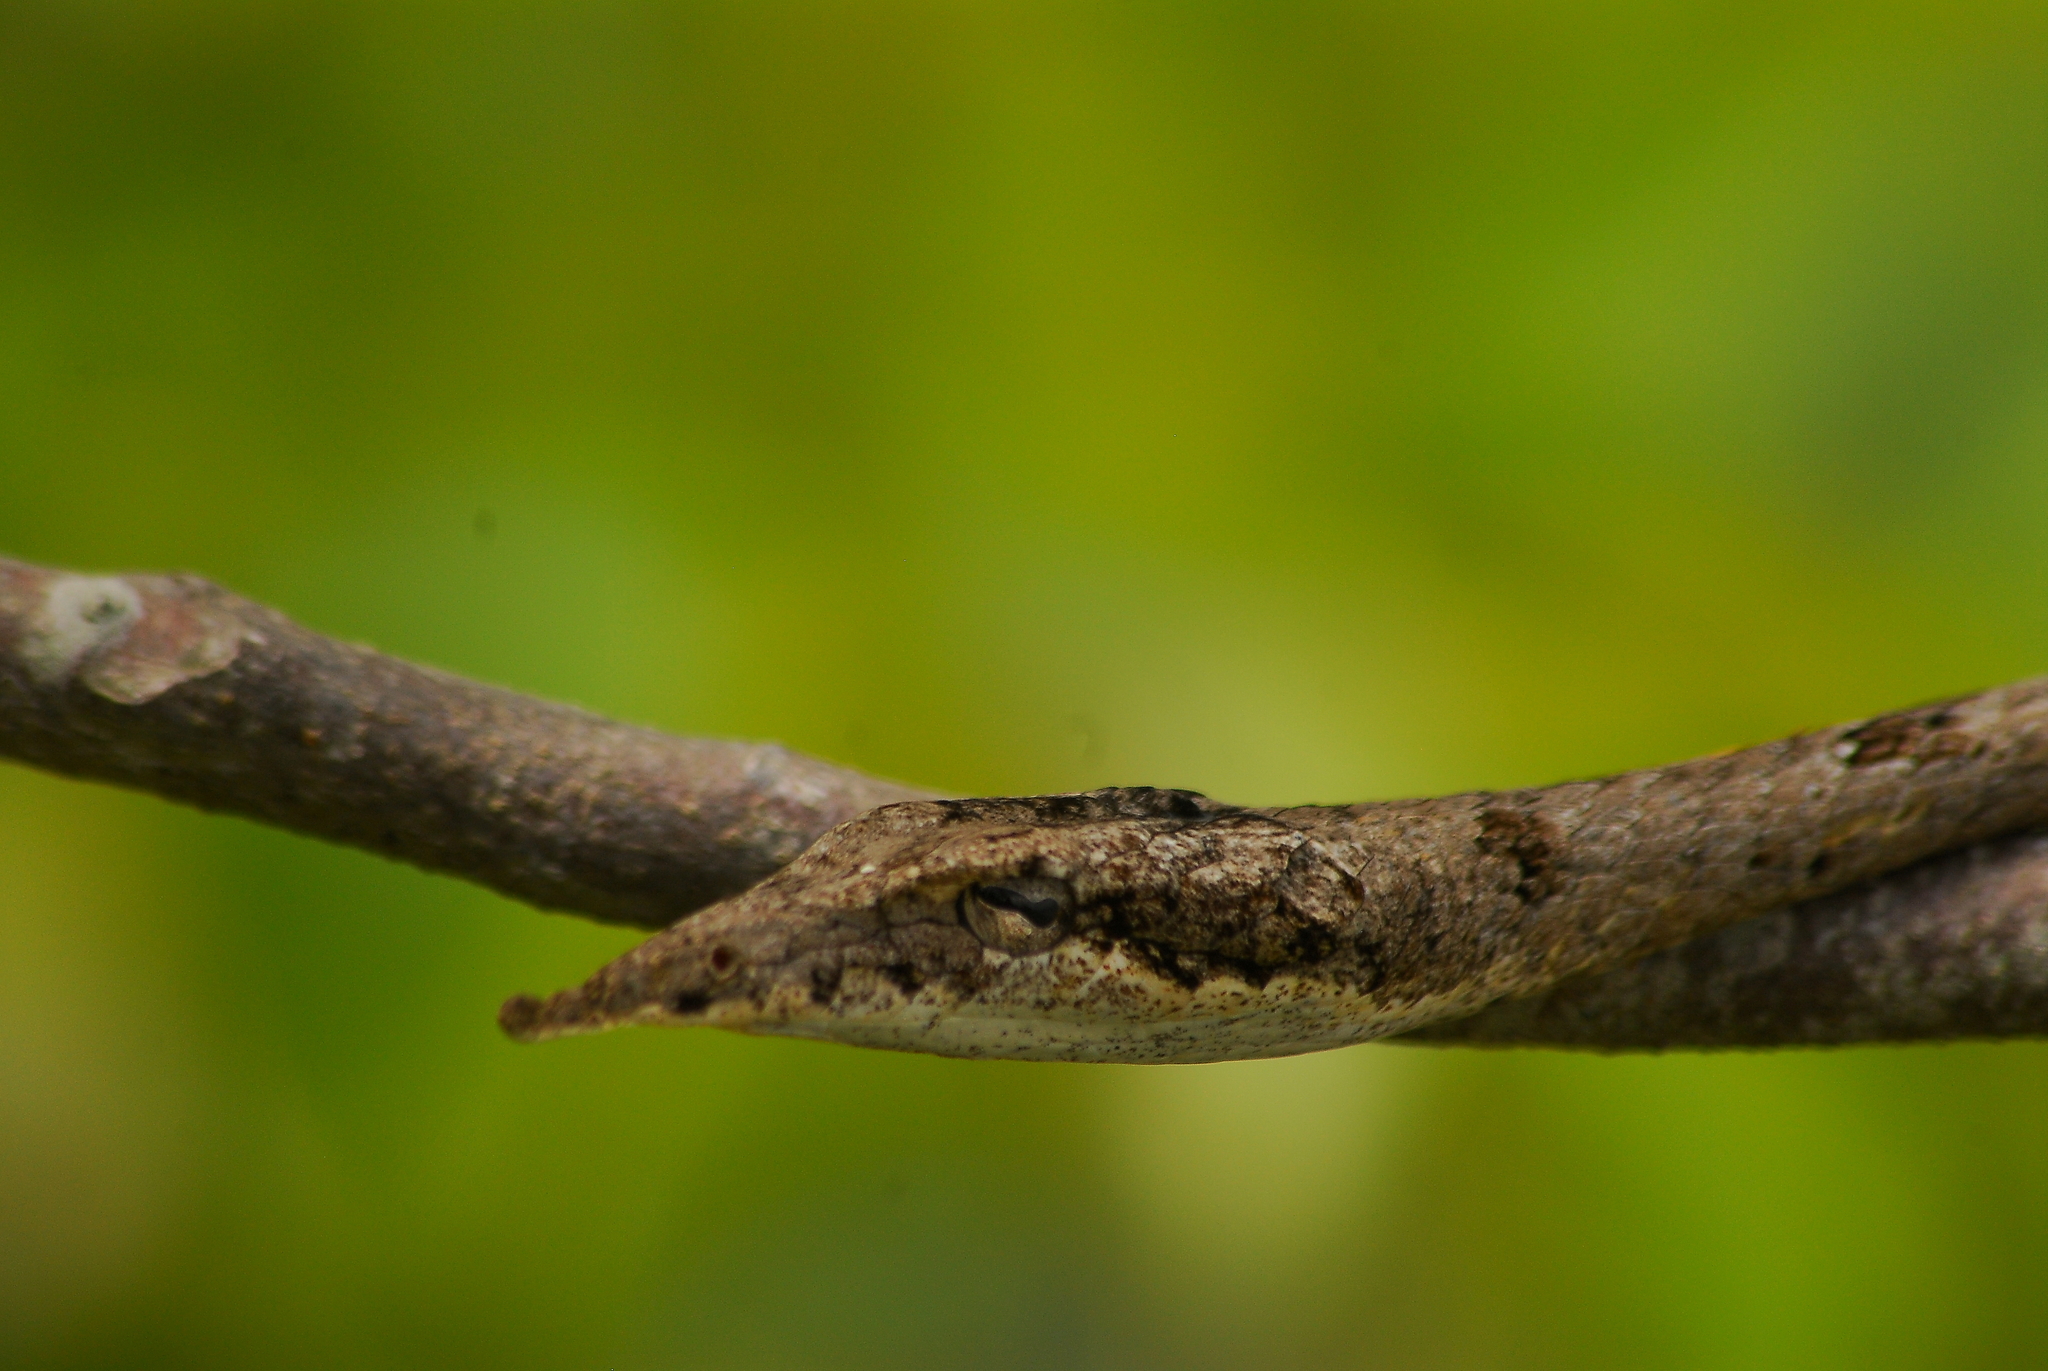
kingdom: Animalia
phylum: Chordata
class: Squamata
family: Colubridae
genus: Ahaetulla
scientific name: Ahaetulla sahyadrensis
